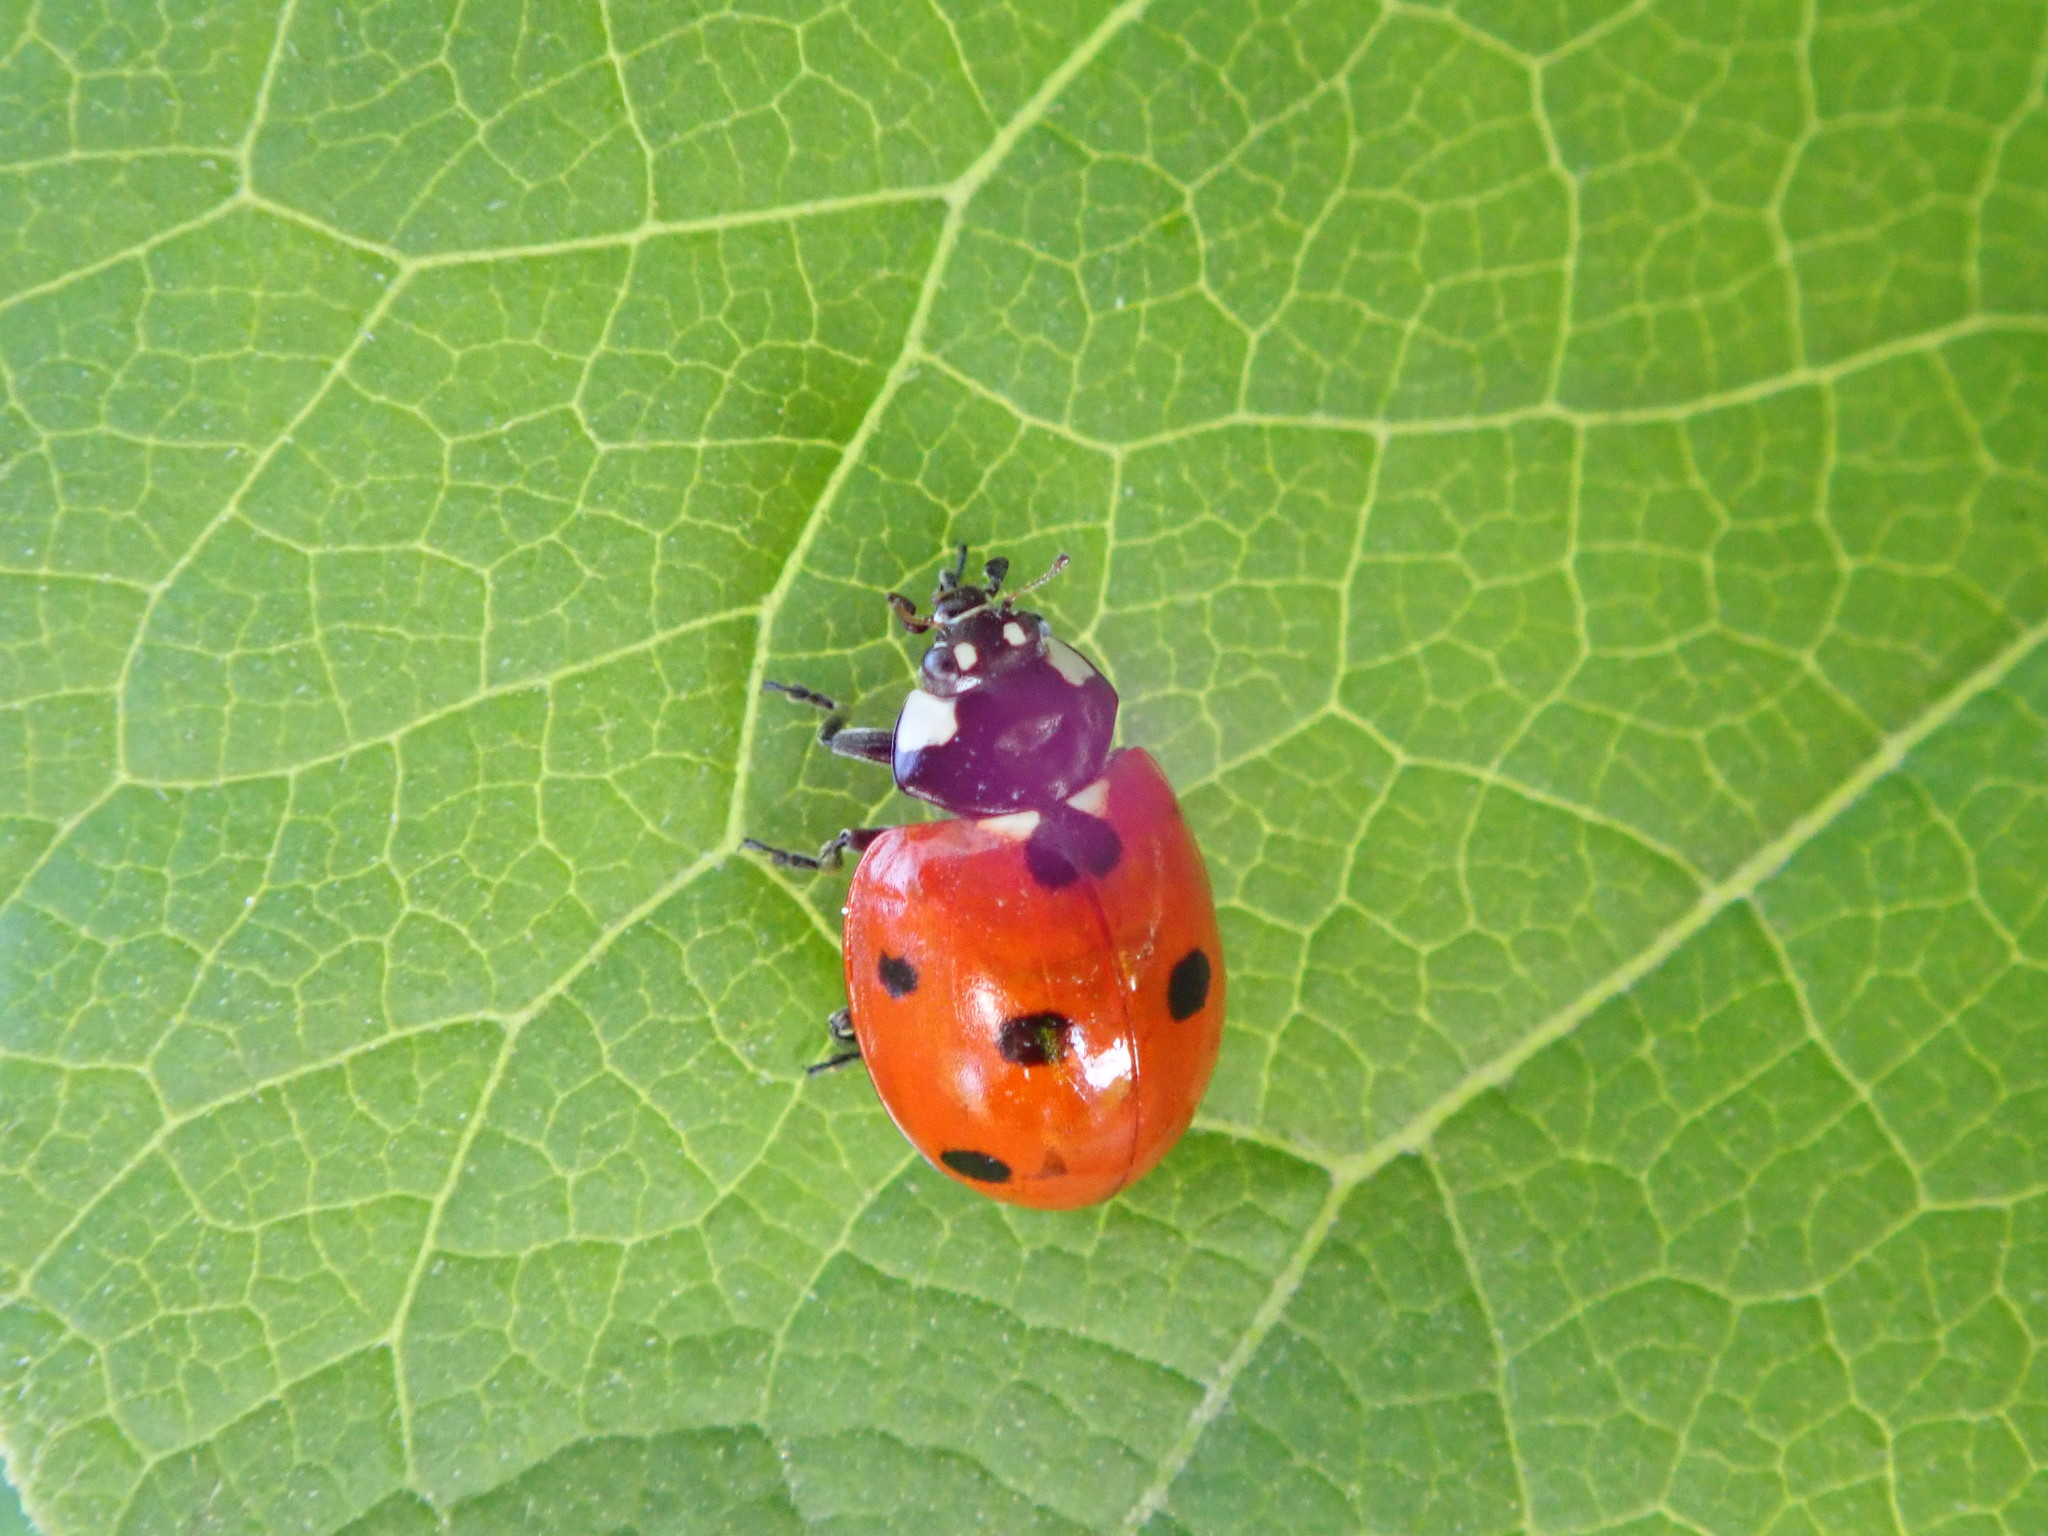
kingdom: Animalia
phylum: Arthropoda
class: Insecta
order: Coleoptera
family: Coccinellidae
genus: Coccinella
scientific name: Coccinella septempunctata
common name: Sevenspotted lady beetle
